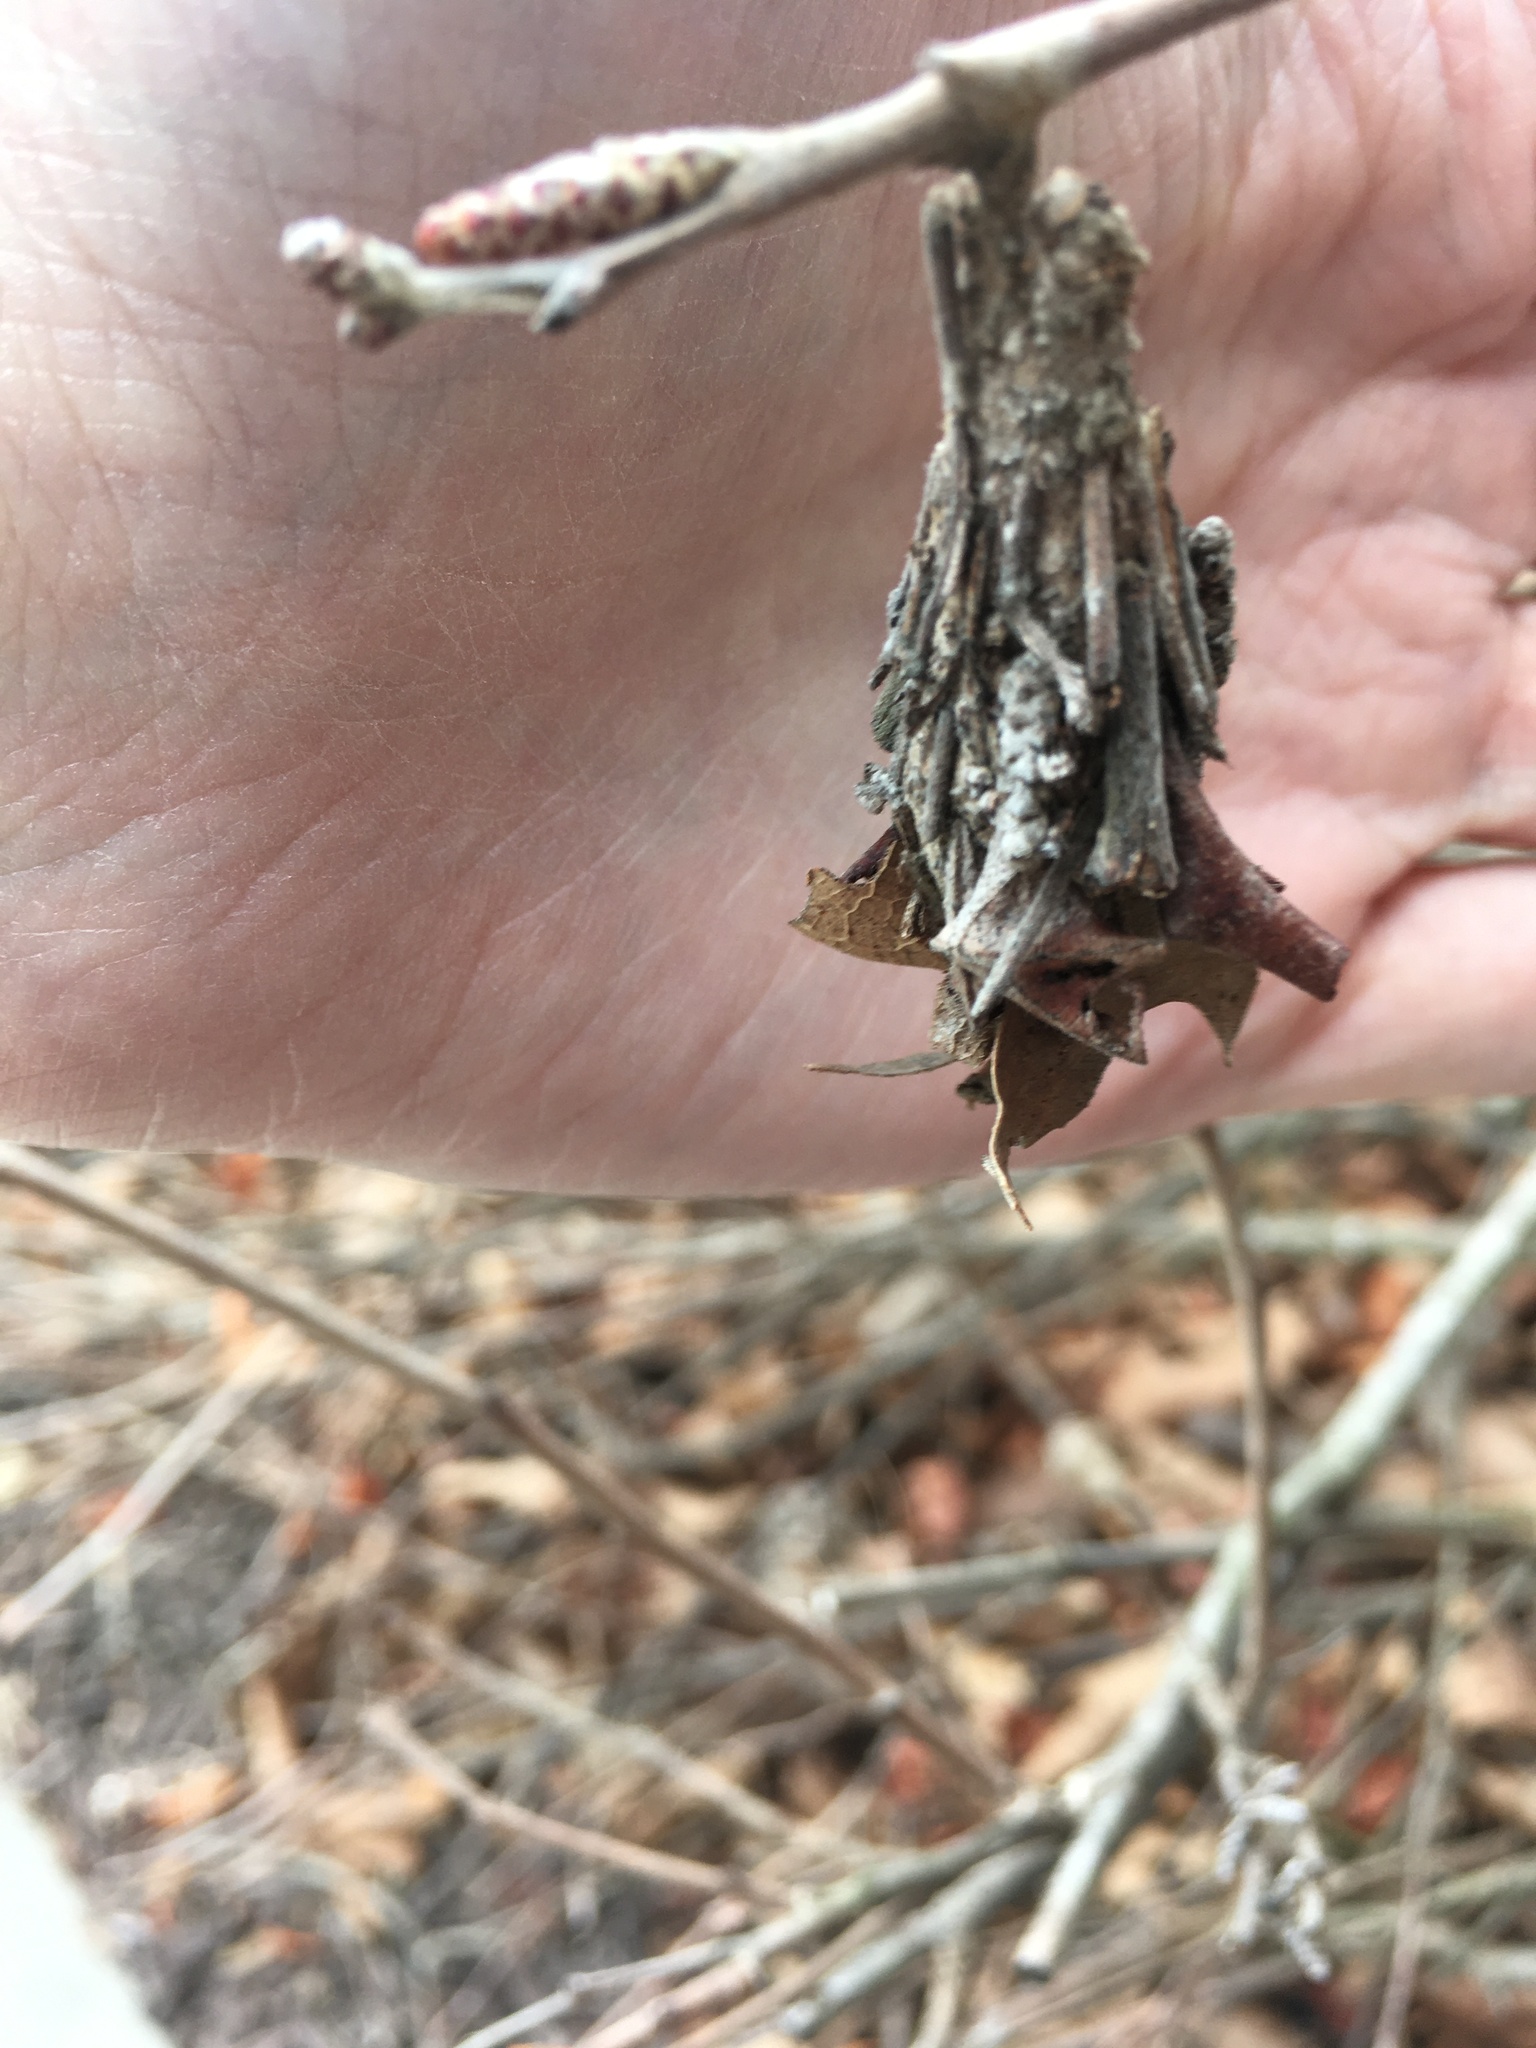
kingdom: Animalia
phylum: Arthropoda
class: Insecta
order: Lepidoptera
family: Psychidae
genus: Thyridopteryx
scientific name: Thyridopteryx ephemeraeformis
